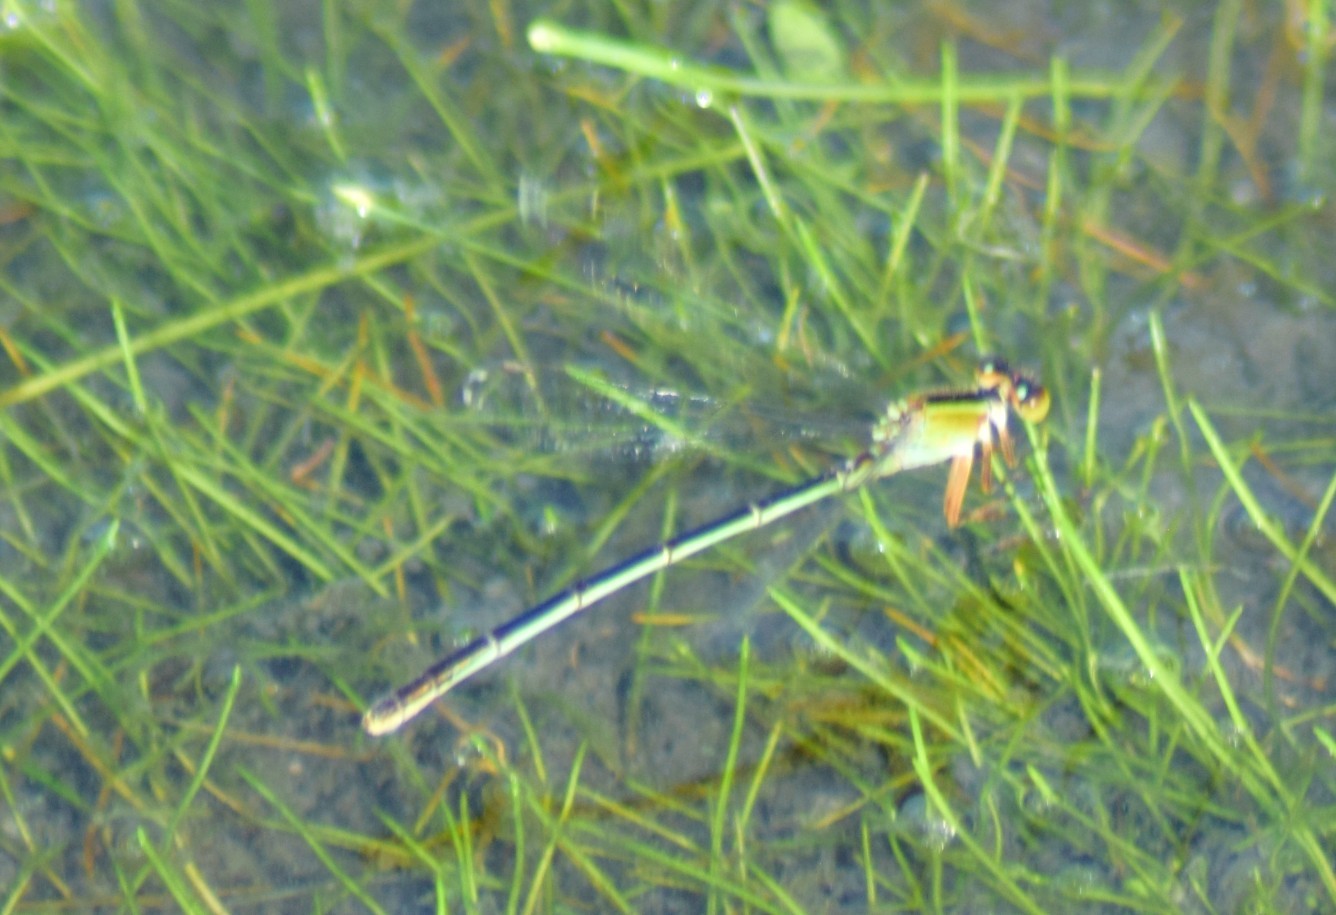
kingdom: Animalia
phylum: Arthropoda
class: Insecta
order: Odonata
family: Coenagrionidae
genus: Ischnura
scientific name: Ischnura ramburii
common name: Rambur's forktail
